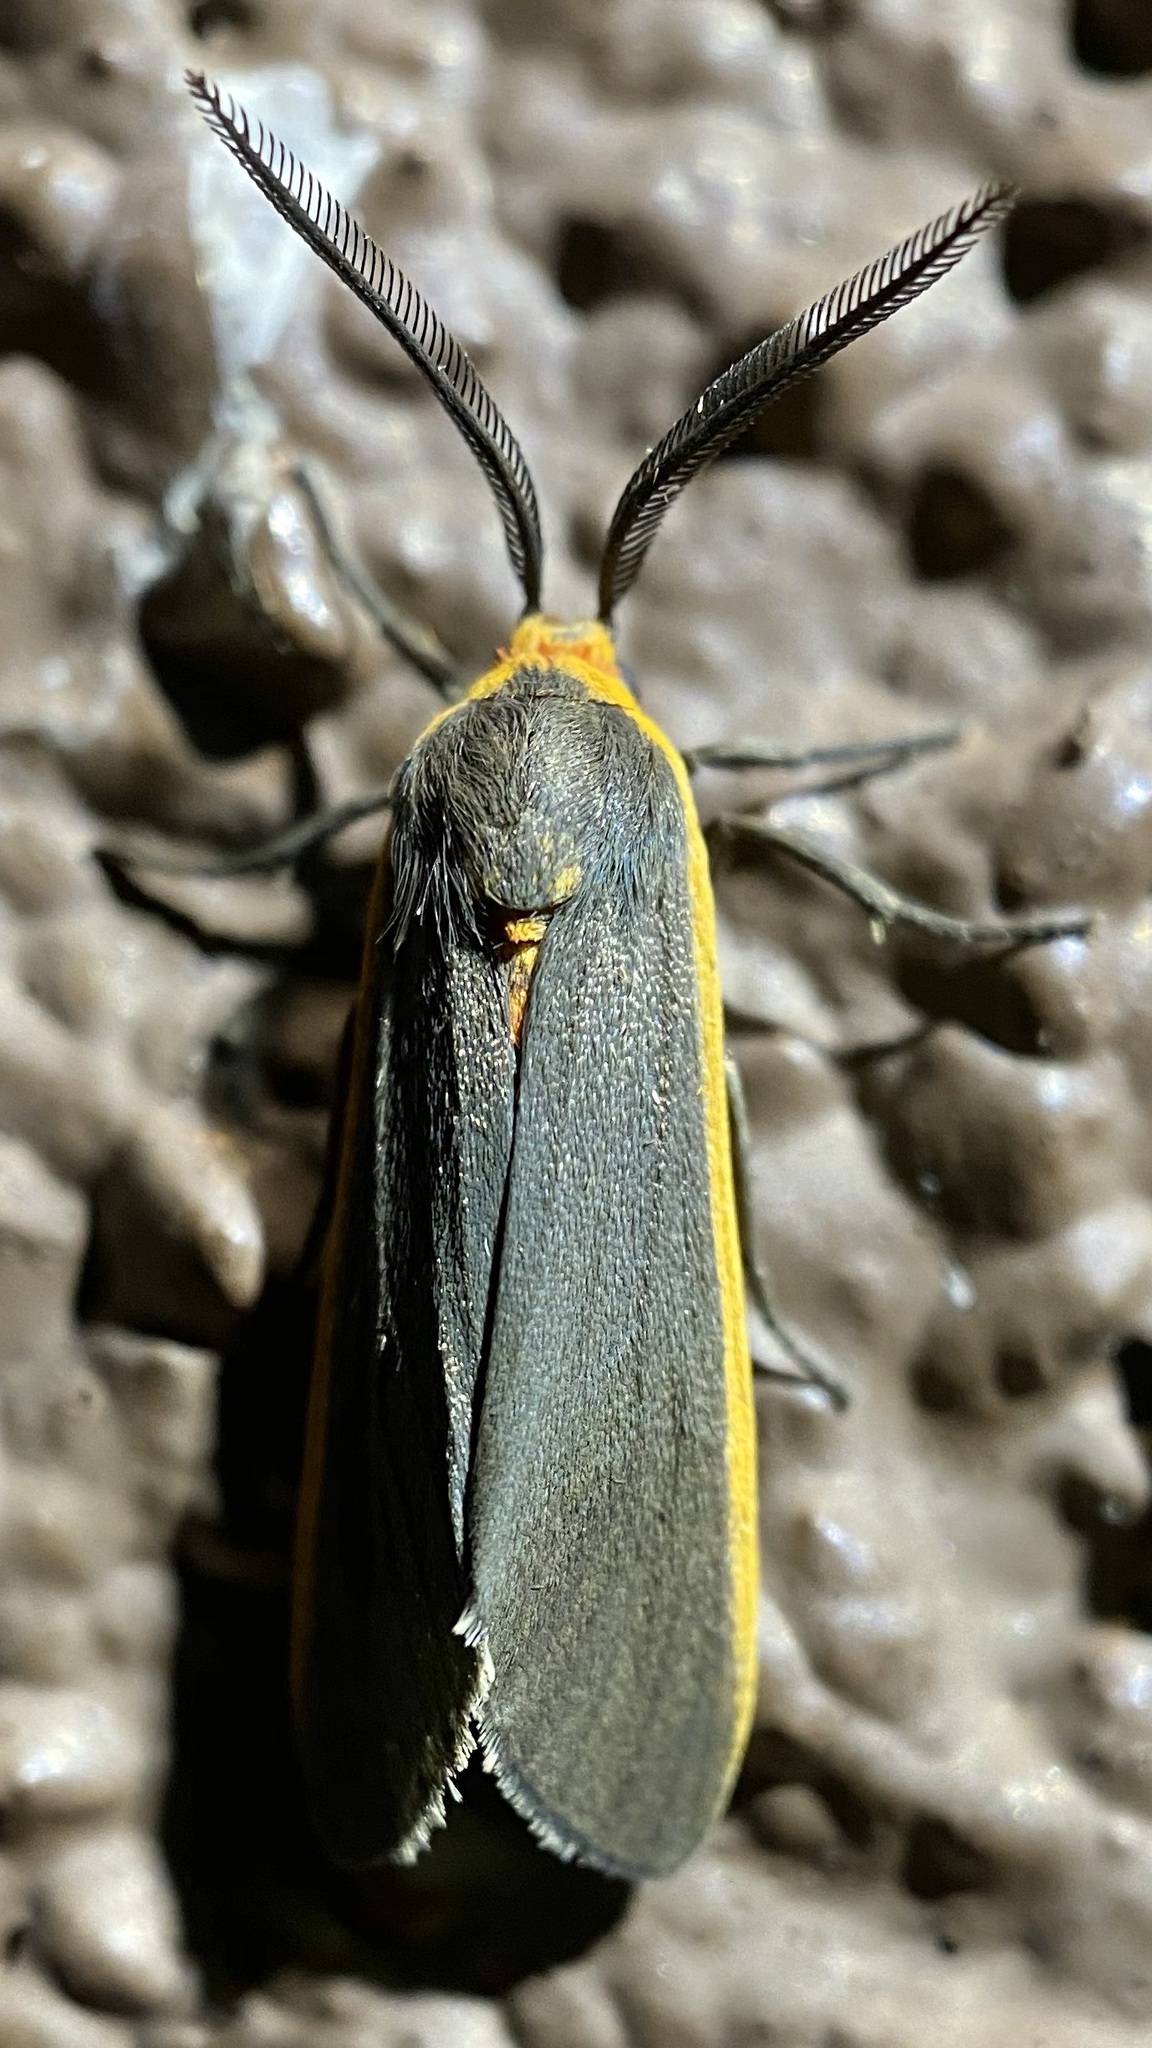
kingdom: Animalia
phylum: Arthropoda
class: Insecta
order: Lepidoptera
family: Erebidae
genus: Euchaetes
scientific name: Euchaetes antica
